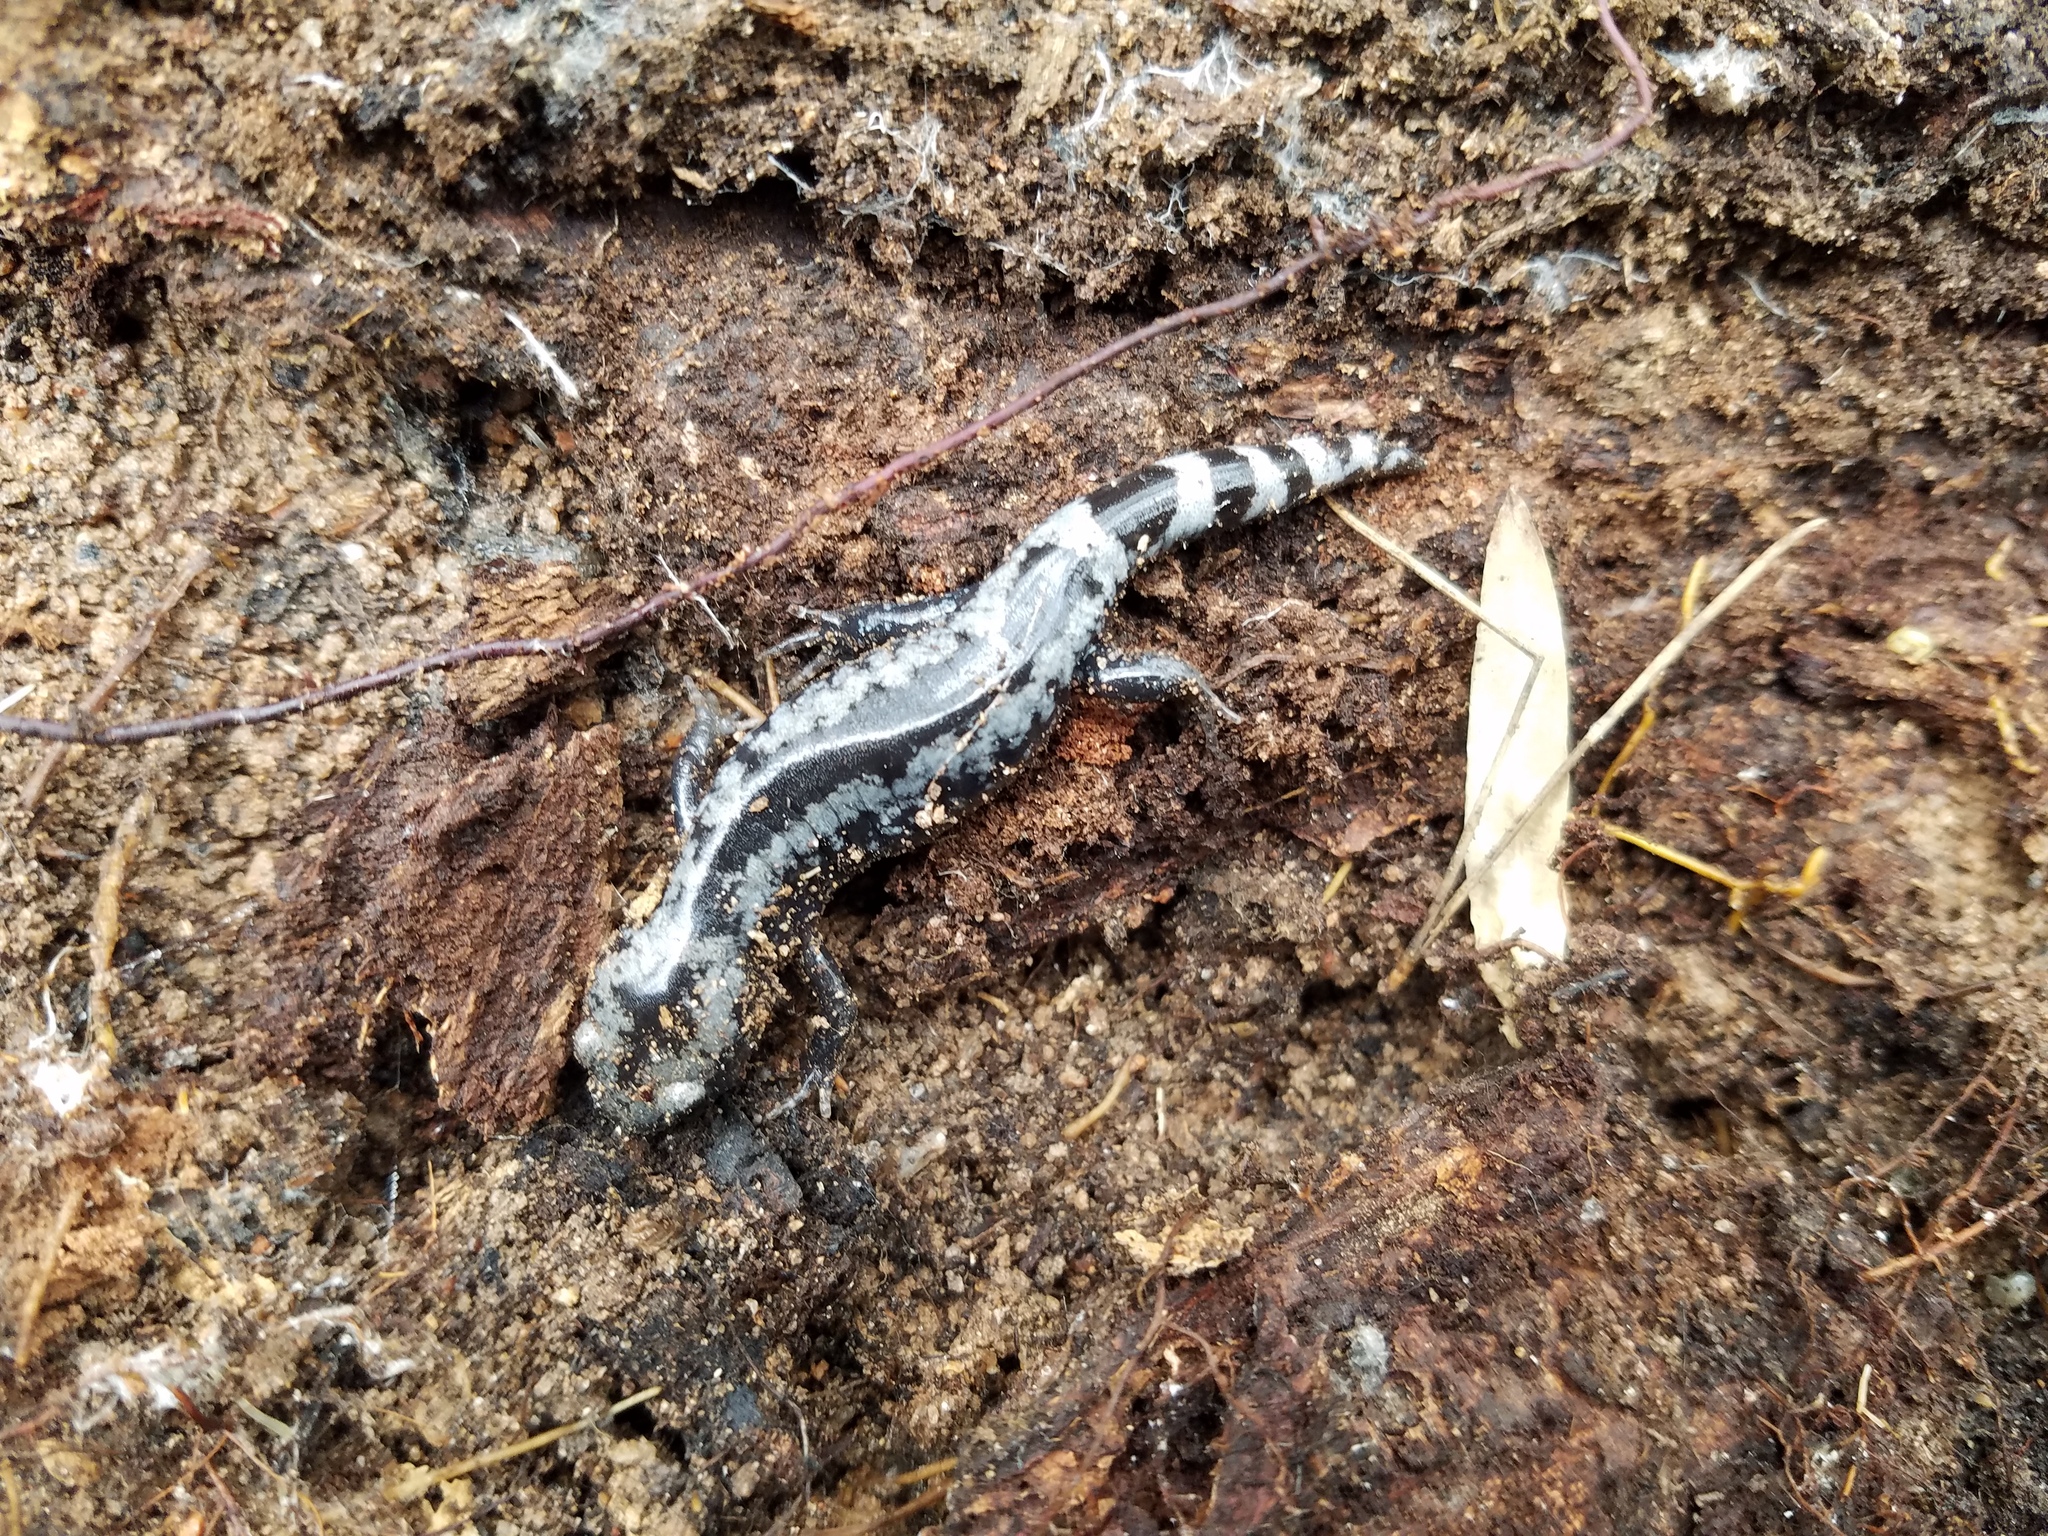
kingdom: Animalia
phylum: Chordata
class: Amphibia
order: Caudata
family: Ambystomatidae
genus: Ambystoma
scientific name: Ambystoma opacum
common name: Marbled salamander
